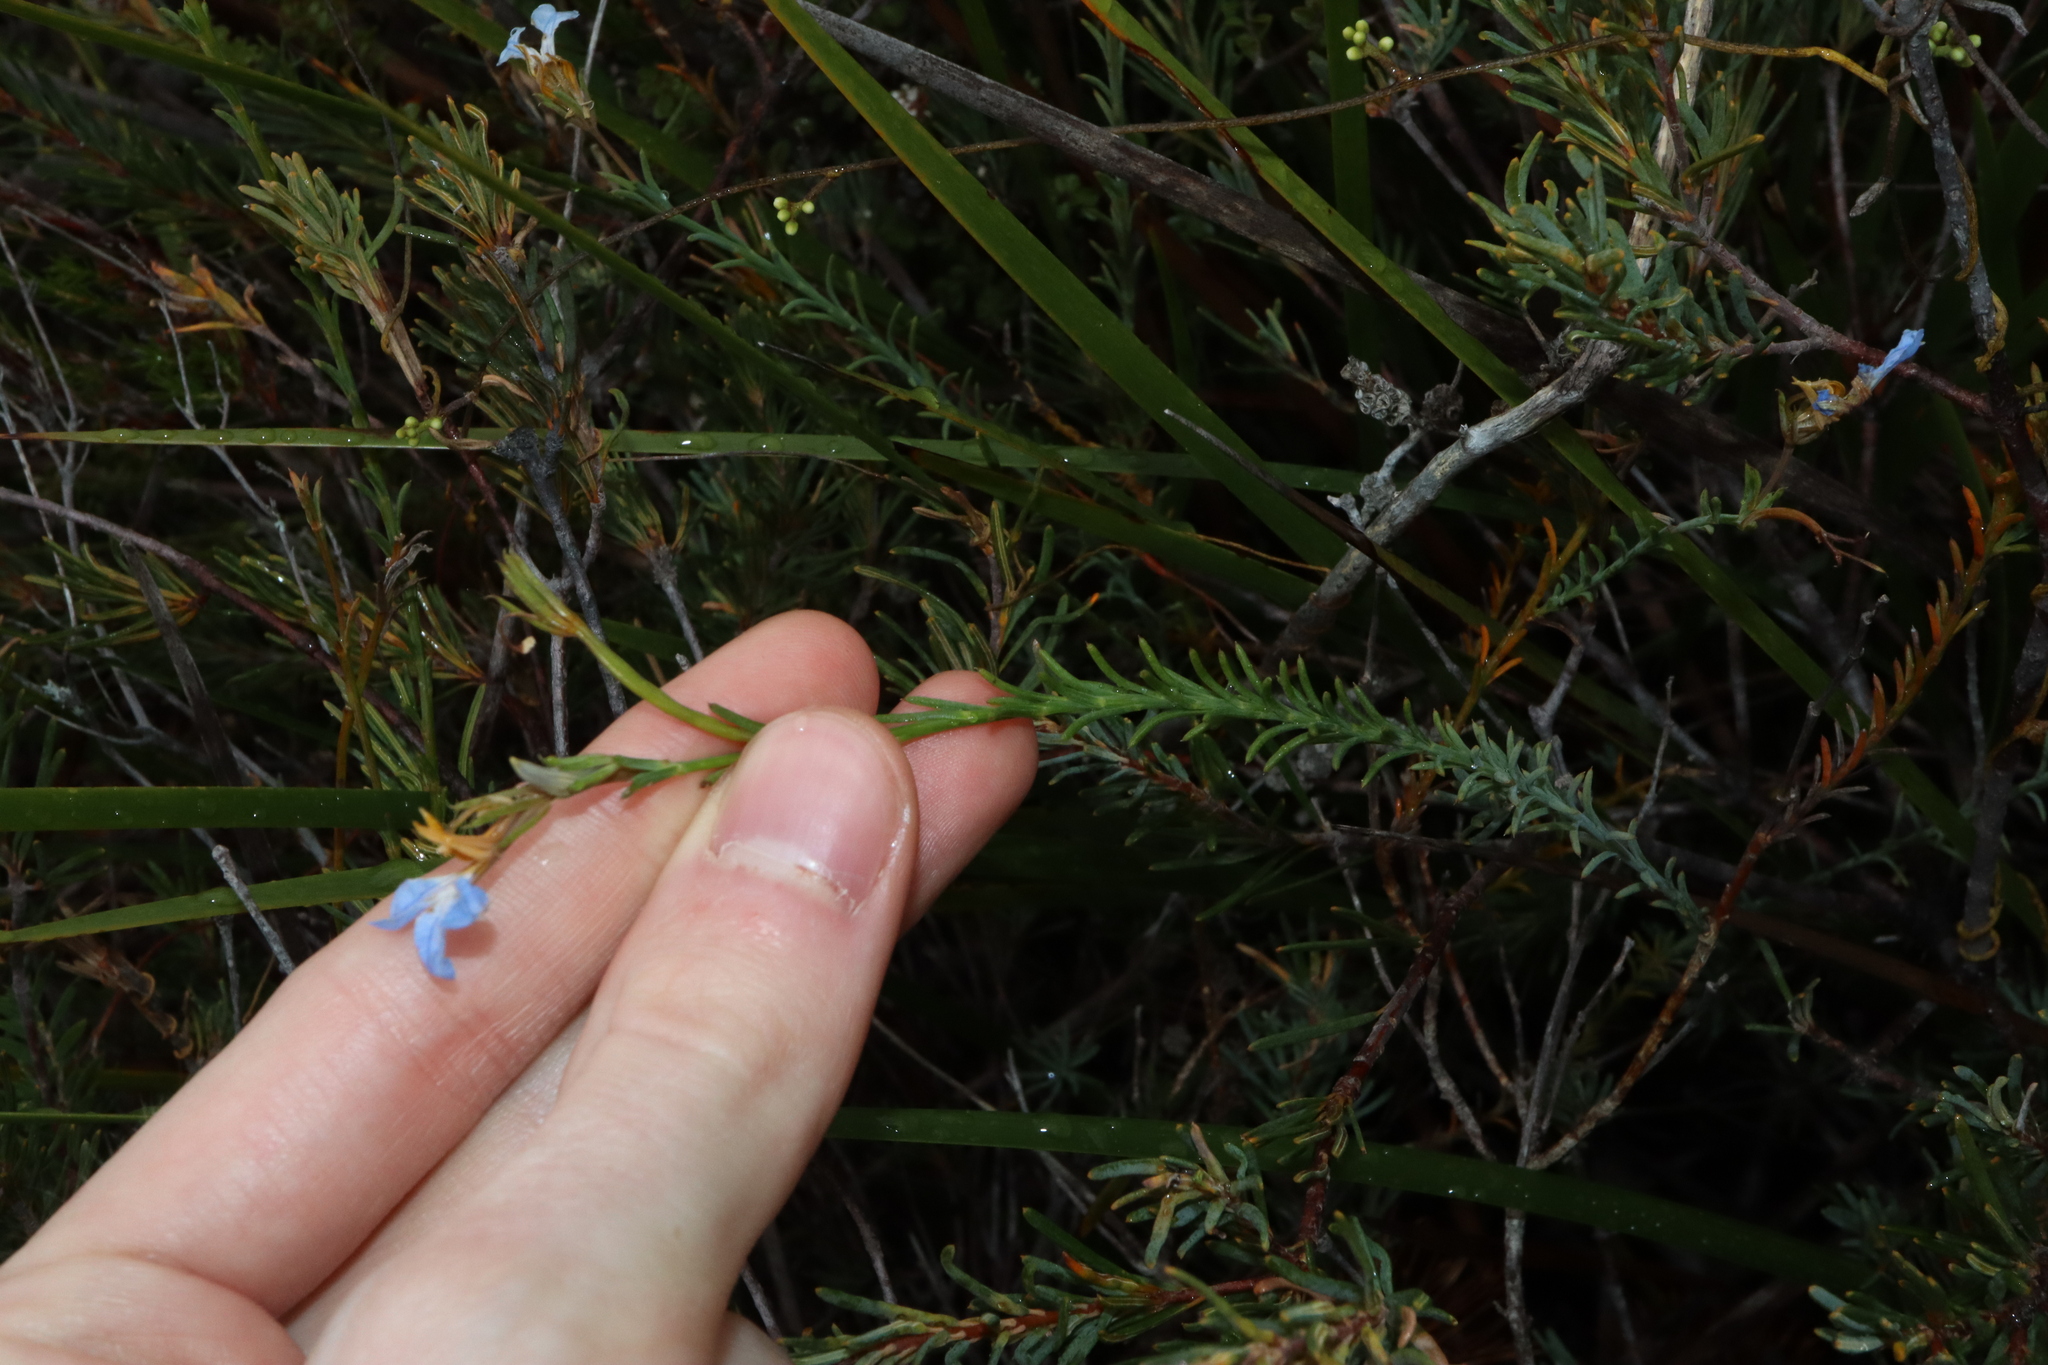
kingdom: Plantae
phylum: Tracheophyta
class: Magnoliopsida
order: Asterales
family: Goodeniaceae
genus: Lechenaultia
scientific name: Lechenaultia heteromera
